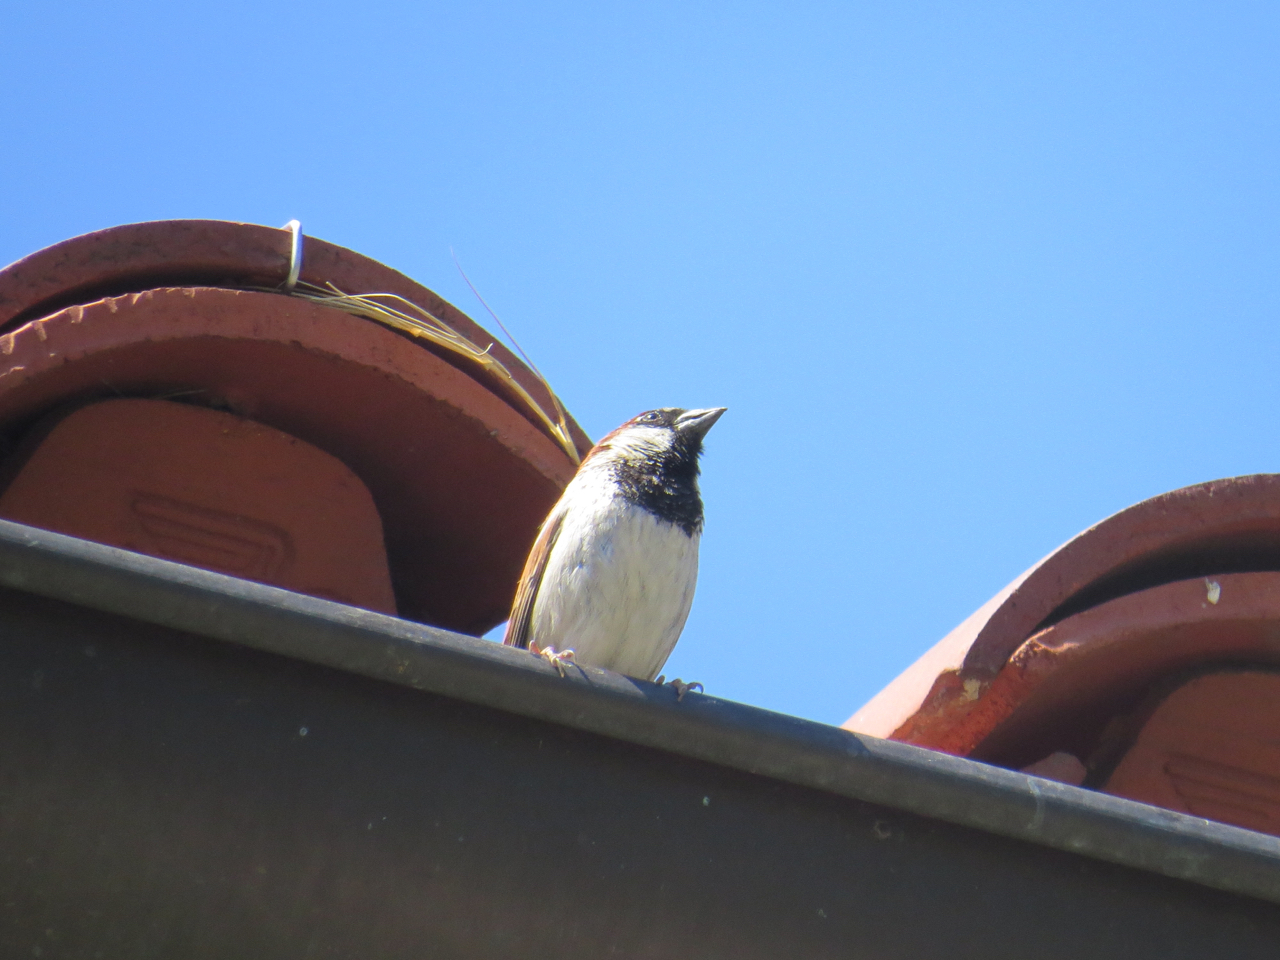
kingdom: Animalia
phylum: Chordata
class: Aves
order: Passeriformes
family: Passeridae
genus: Passer
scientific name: Passer domesticus
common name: House sparrow
